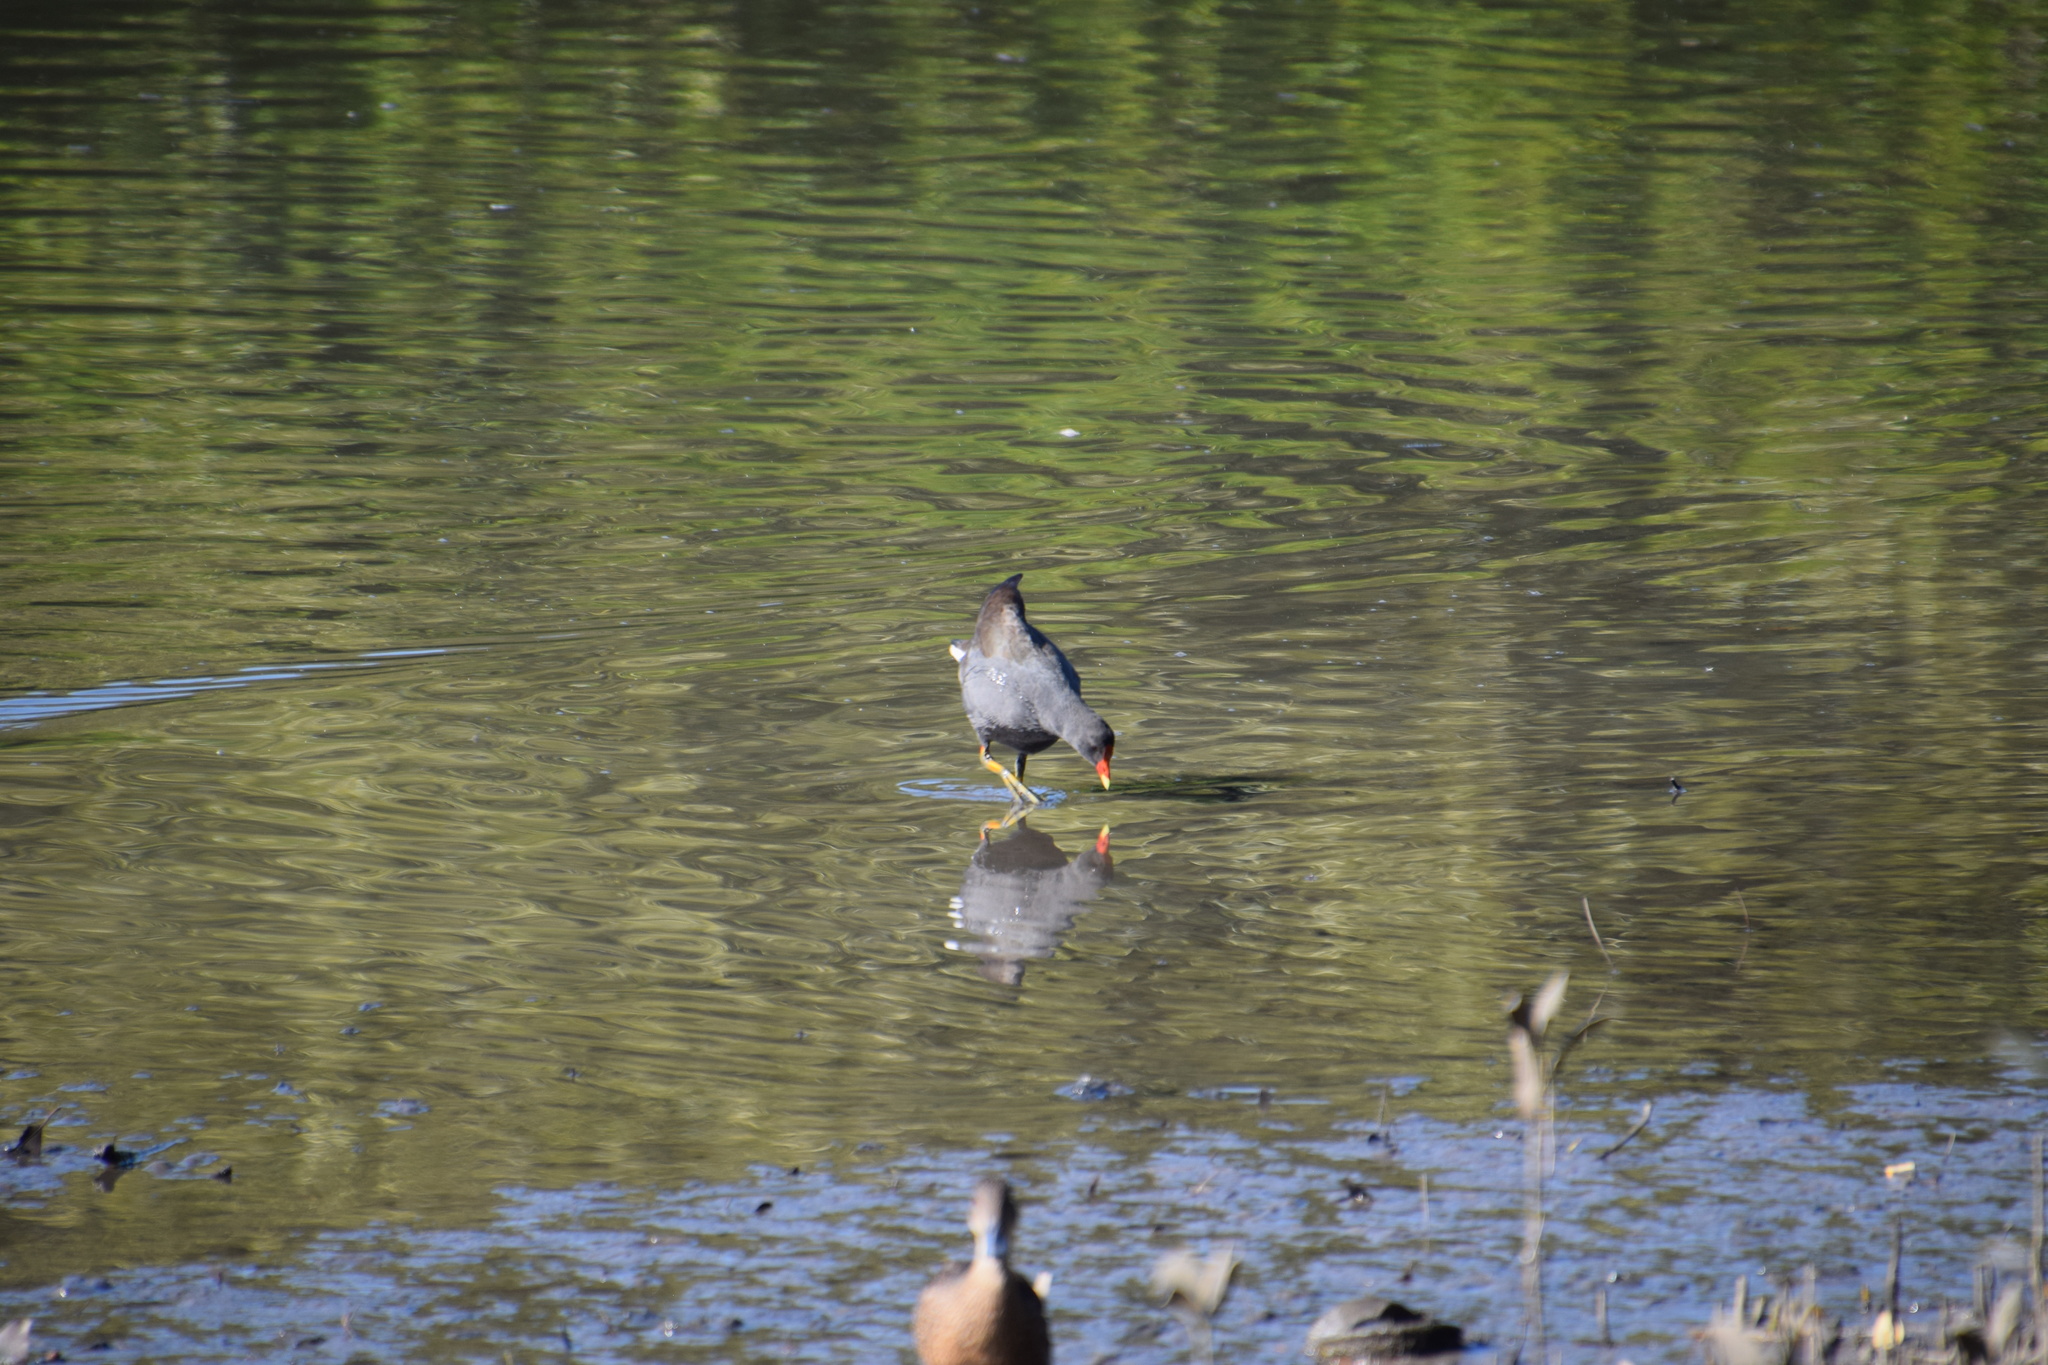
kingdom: Animalia
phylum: Chordata
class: Aves
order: Gruiformes
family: Rallidae
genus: Gallinula
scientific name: Gallinula tenebrosa
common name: Dusky moorhen
